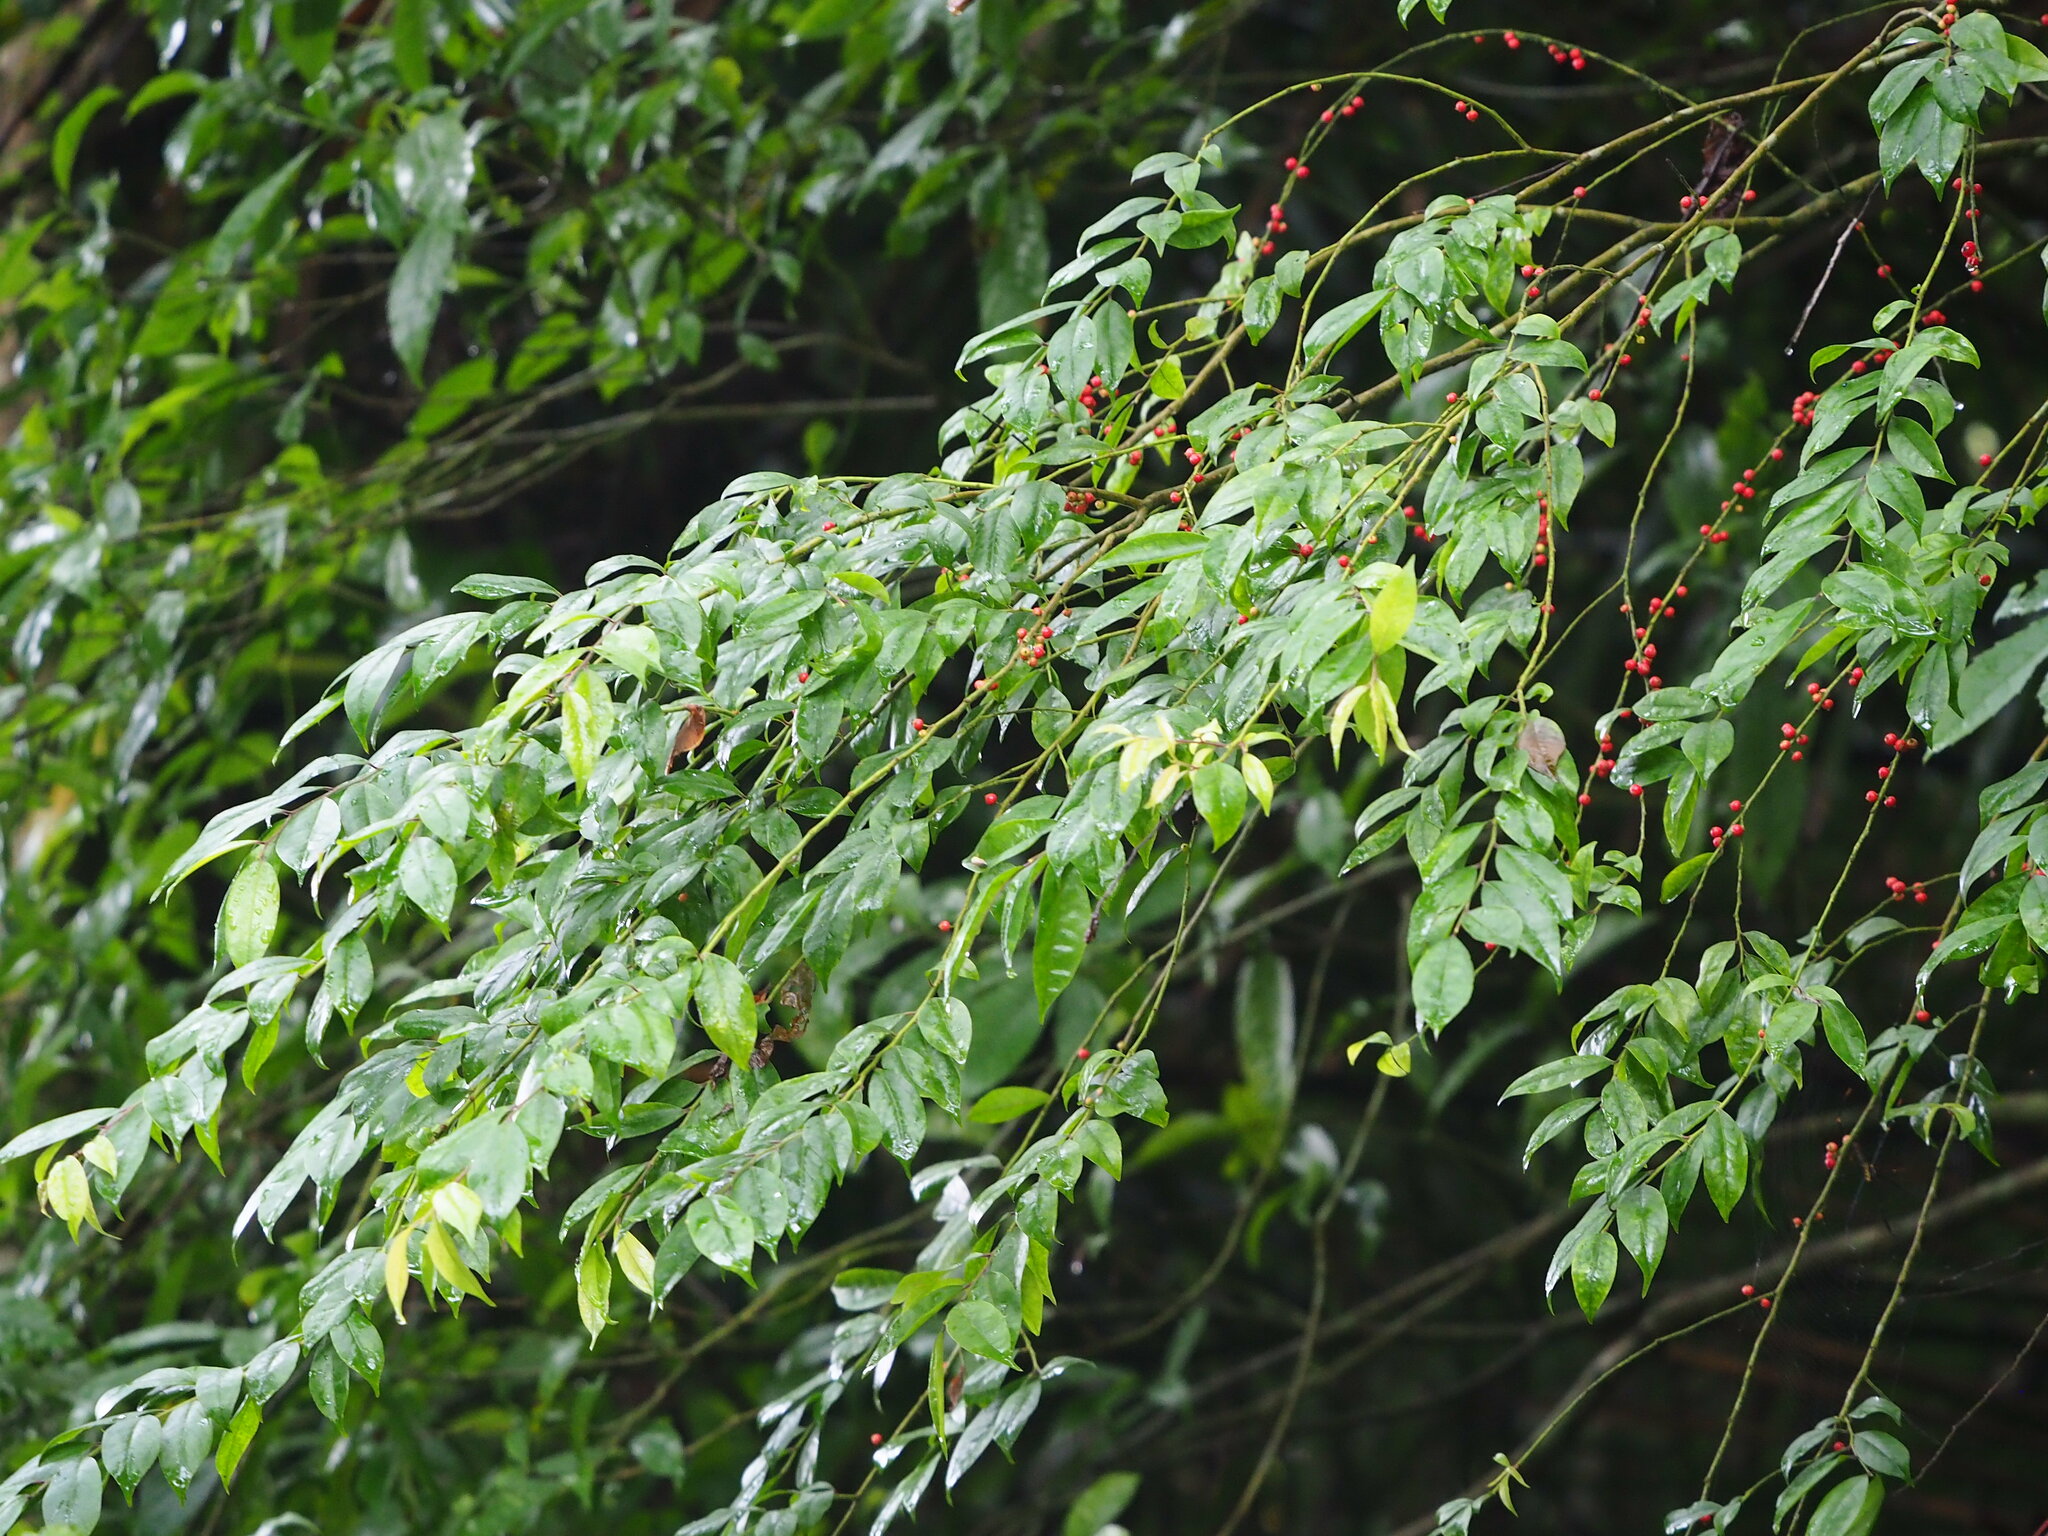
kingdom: Plantae
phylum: Tracheophyta
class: Magnoliopsida
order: Aquifoliales
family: Aquifoliaceae
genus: Ilex
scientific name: Ilex pubescens
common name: Pubescent holly
